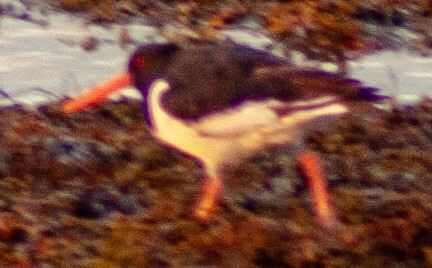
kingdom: Animalia
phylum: Chordata
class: Aves
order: Charadriiformes
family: Haematopodidae
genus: Haematopus
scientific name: Haematopus ostralegus
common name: Eurasian oystercatcher
